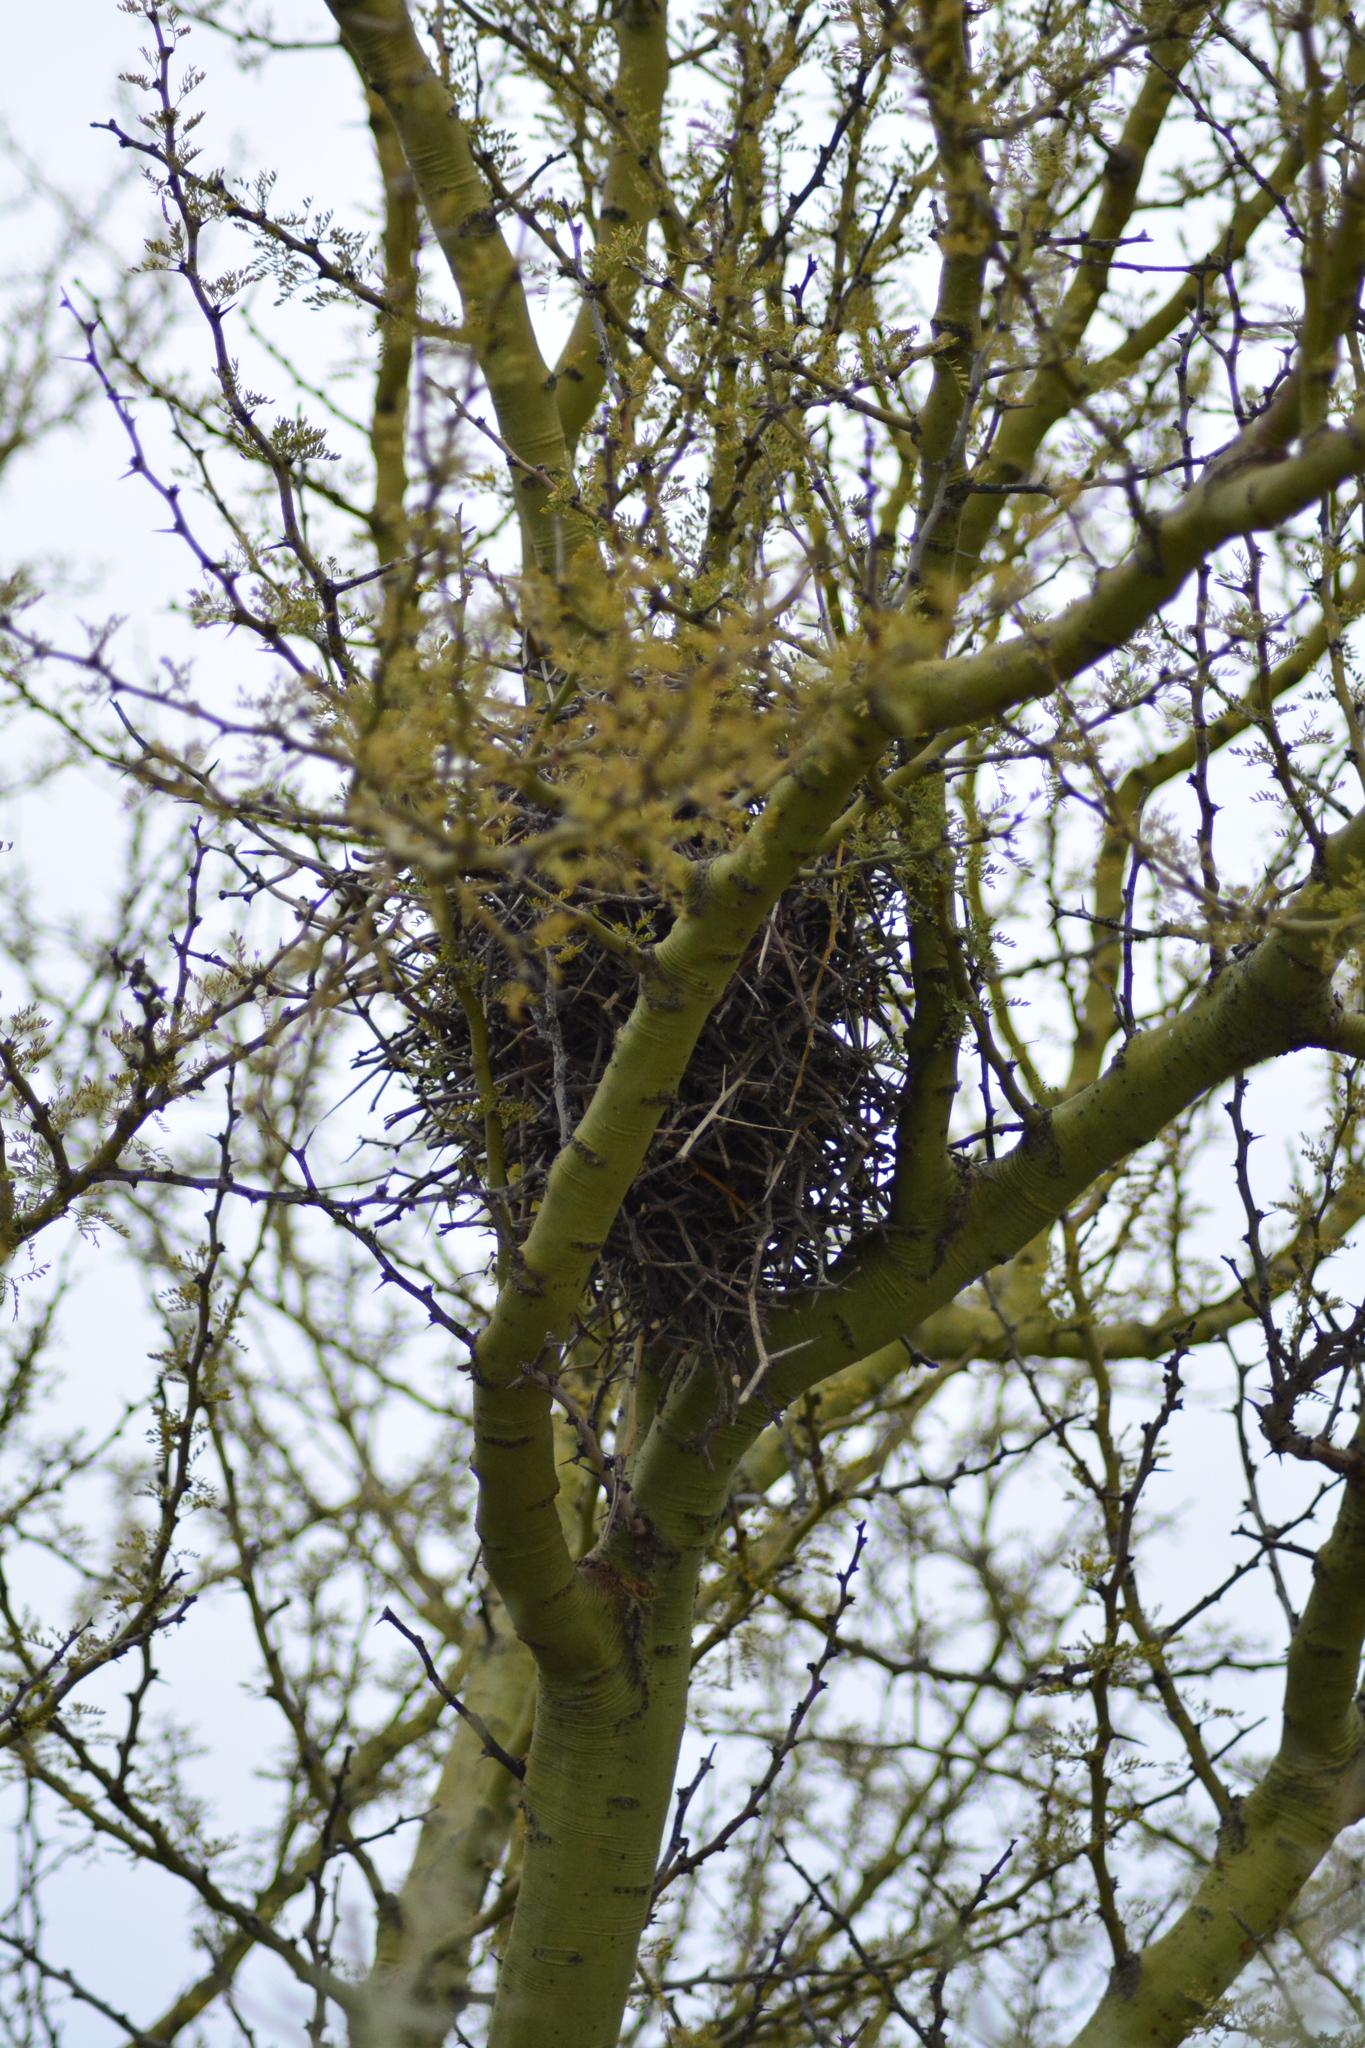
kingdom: Plantae
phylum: Tracheophyta
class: Magnoliopsida
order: Fabales
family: Fabaceae
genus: Parkinsonia
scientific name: Parkinsonia praecox
